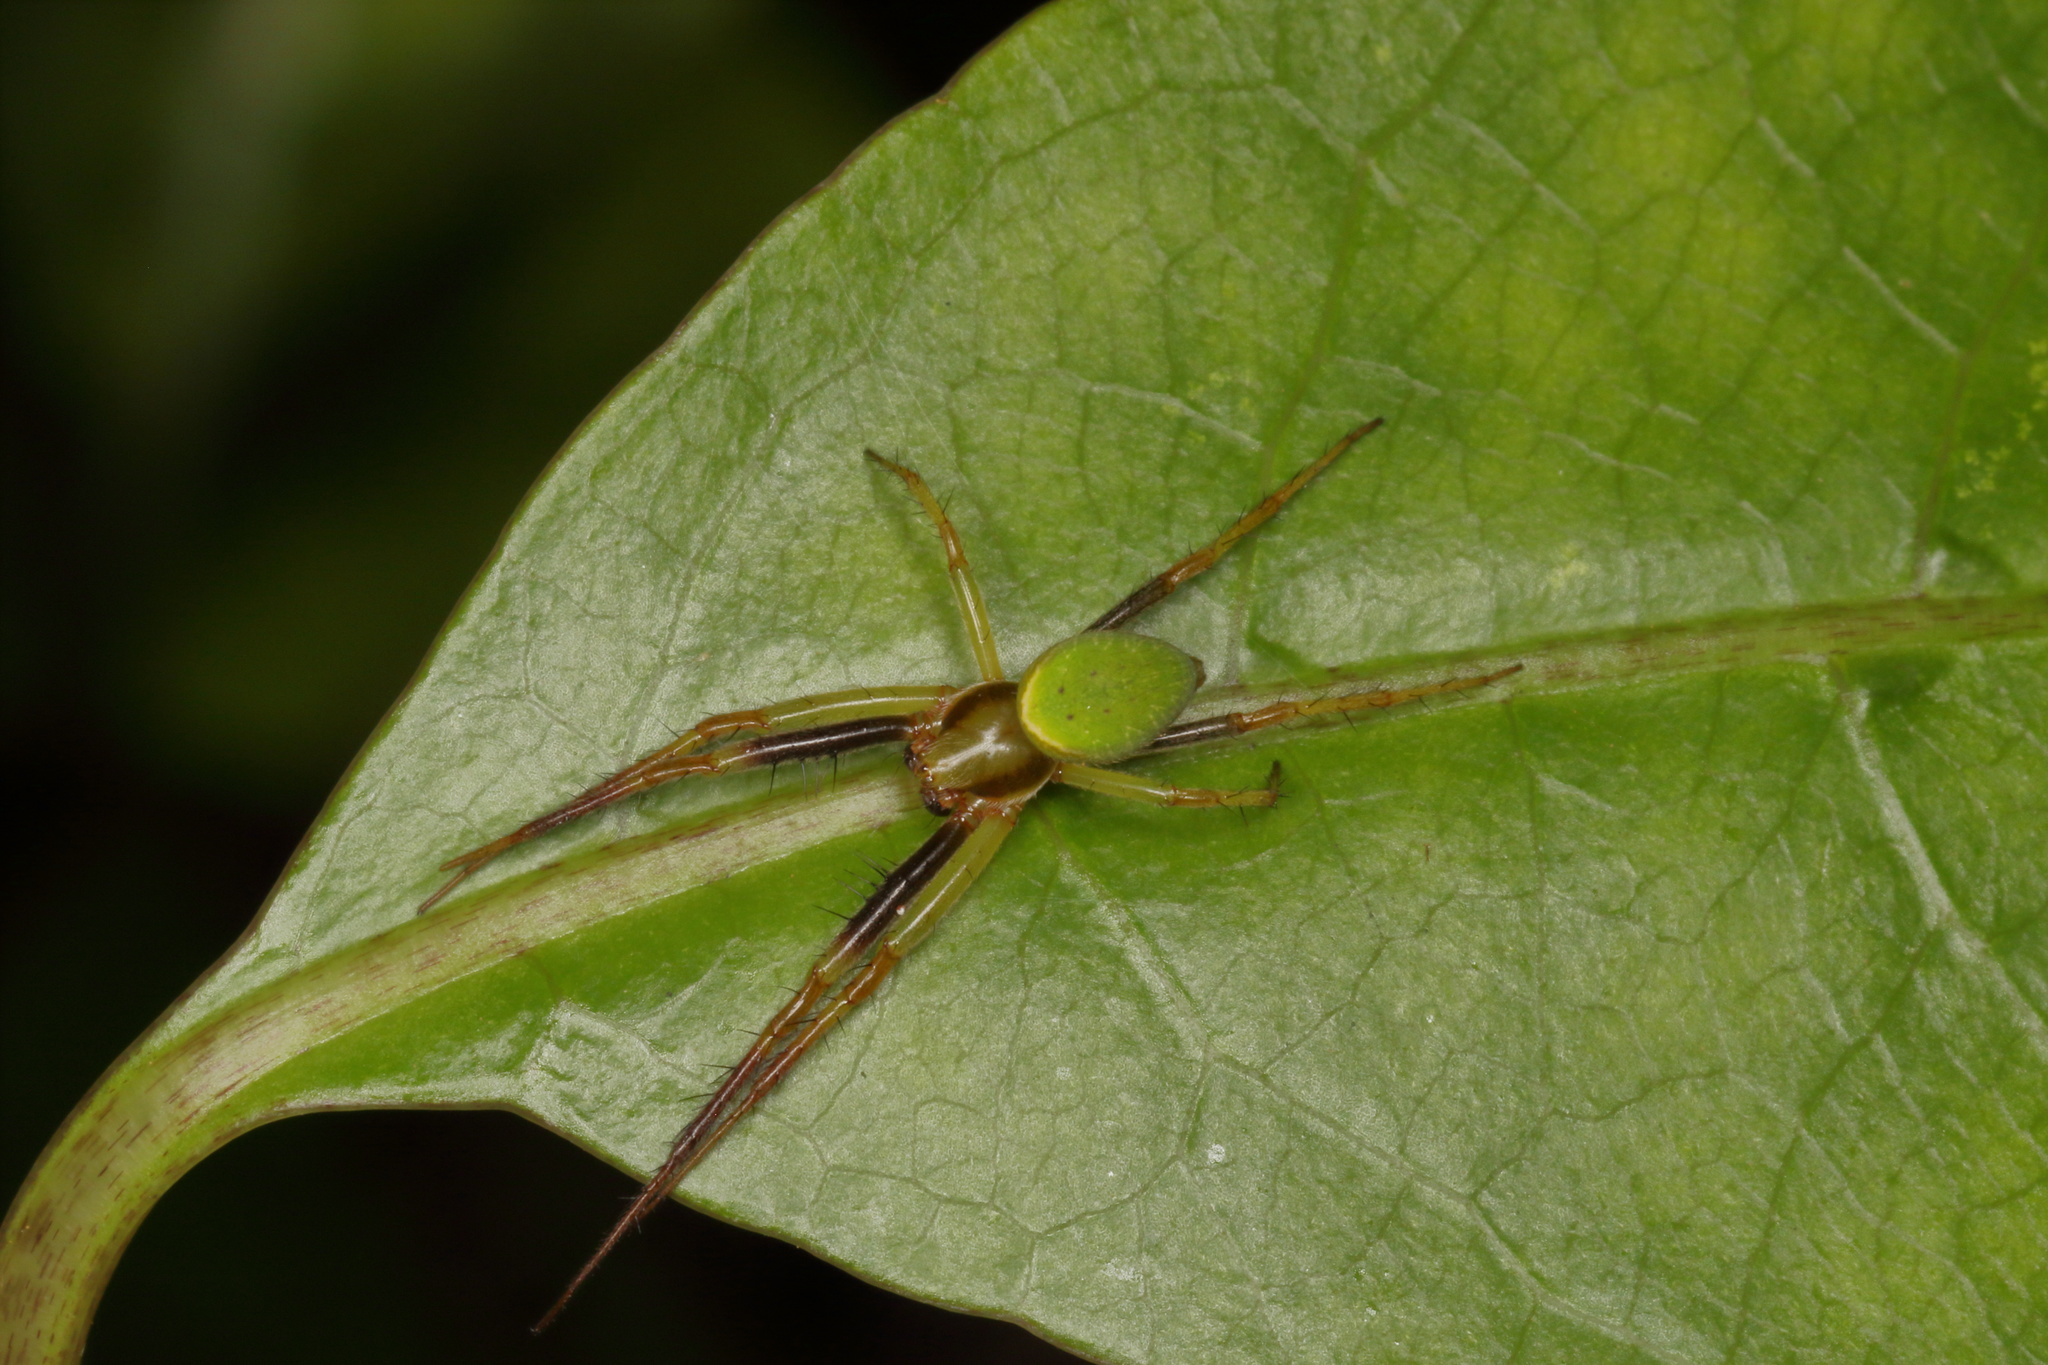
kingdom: Animalia
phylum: Arthropoda
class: Arachnida
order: Araneae
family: Araneidae
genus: Colaranea
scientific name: Colaranea viriditas
